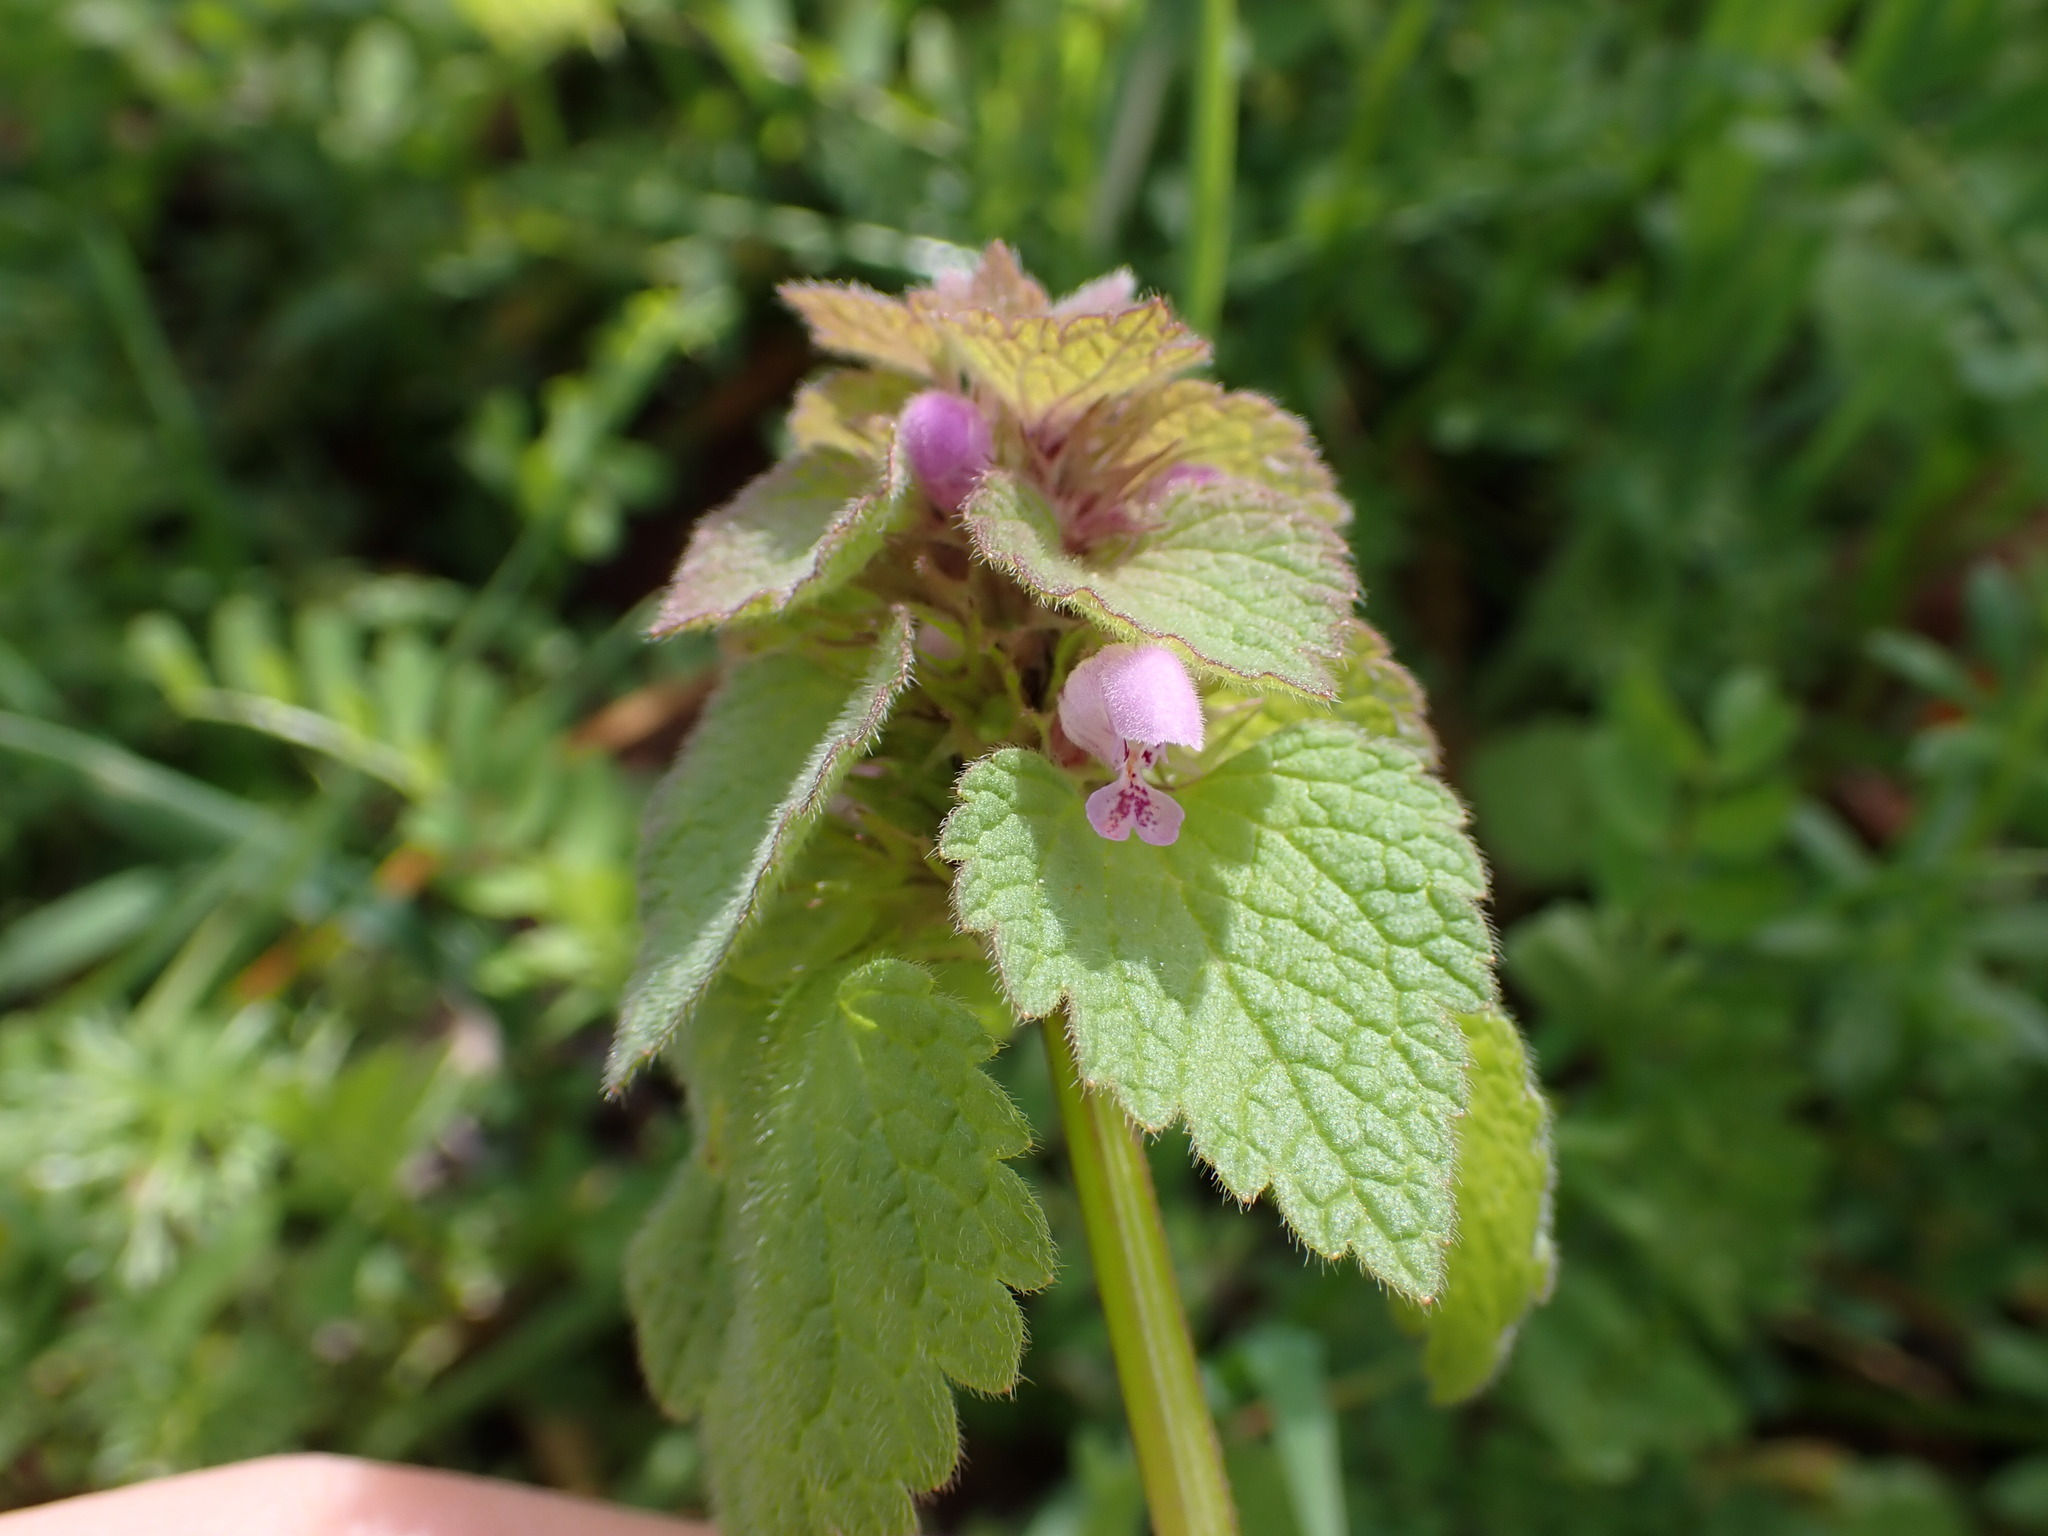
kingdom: Plantae
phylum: Tracheophyta
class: Magnoliopsida
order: Lamiales
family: Lamiaceae
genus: Lamium
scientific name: Lamium purpureum
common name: Red dead-nettle
